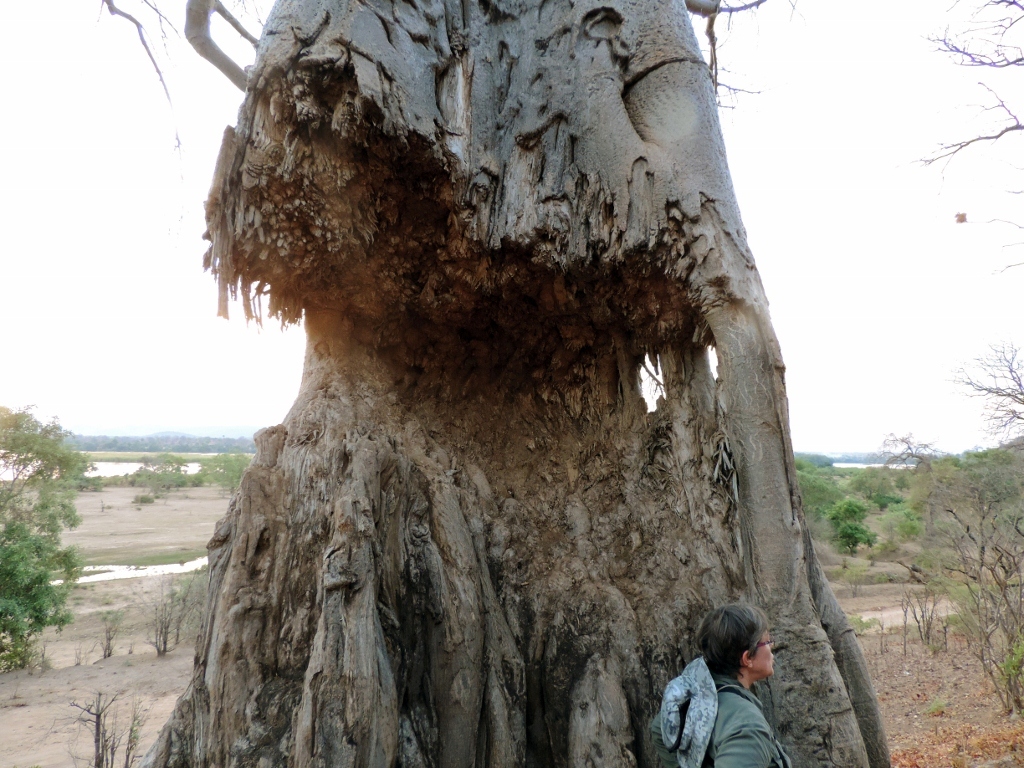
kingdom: Animalia
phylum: Chordata
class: Mammalia
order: Proboscidea
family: Elephantidae
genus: Loxodonta
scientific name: Loxodonta africana
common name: African elephant
